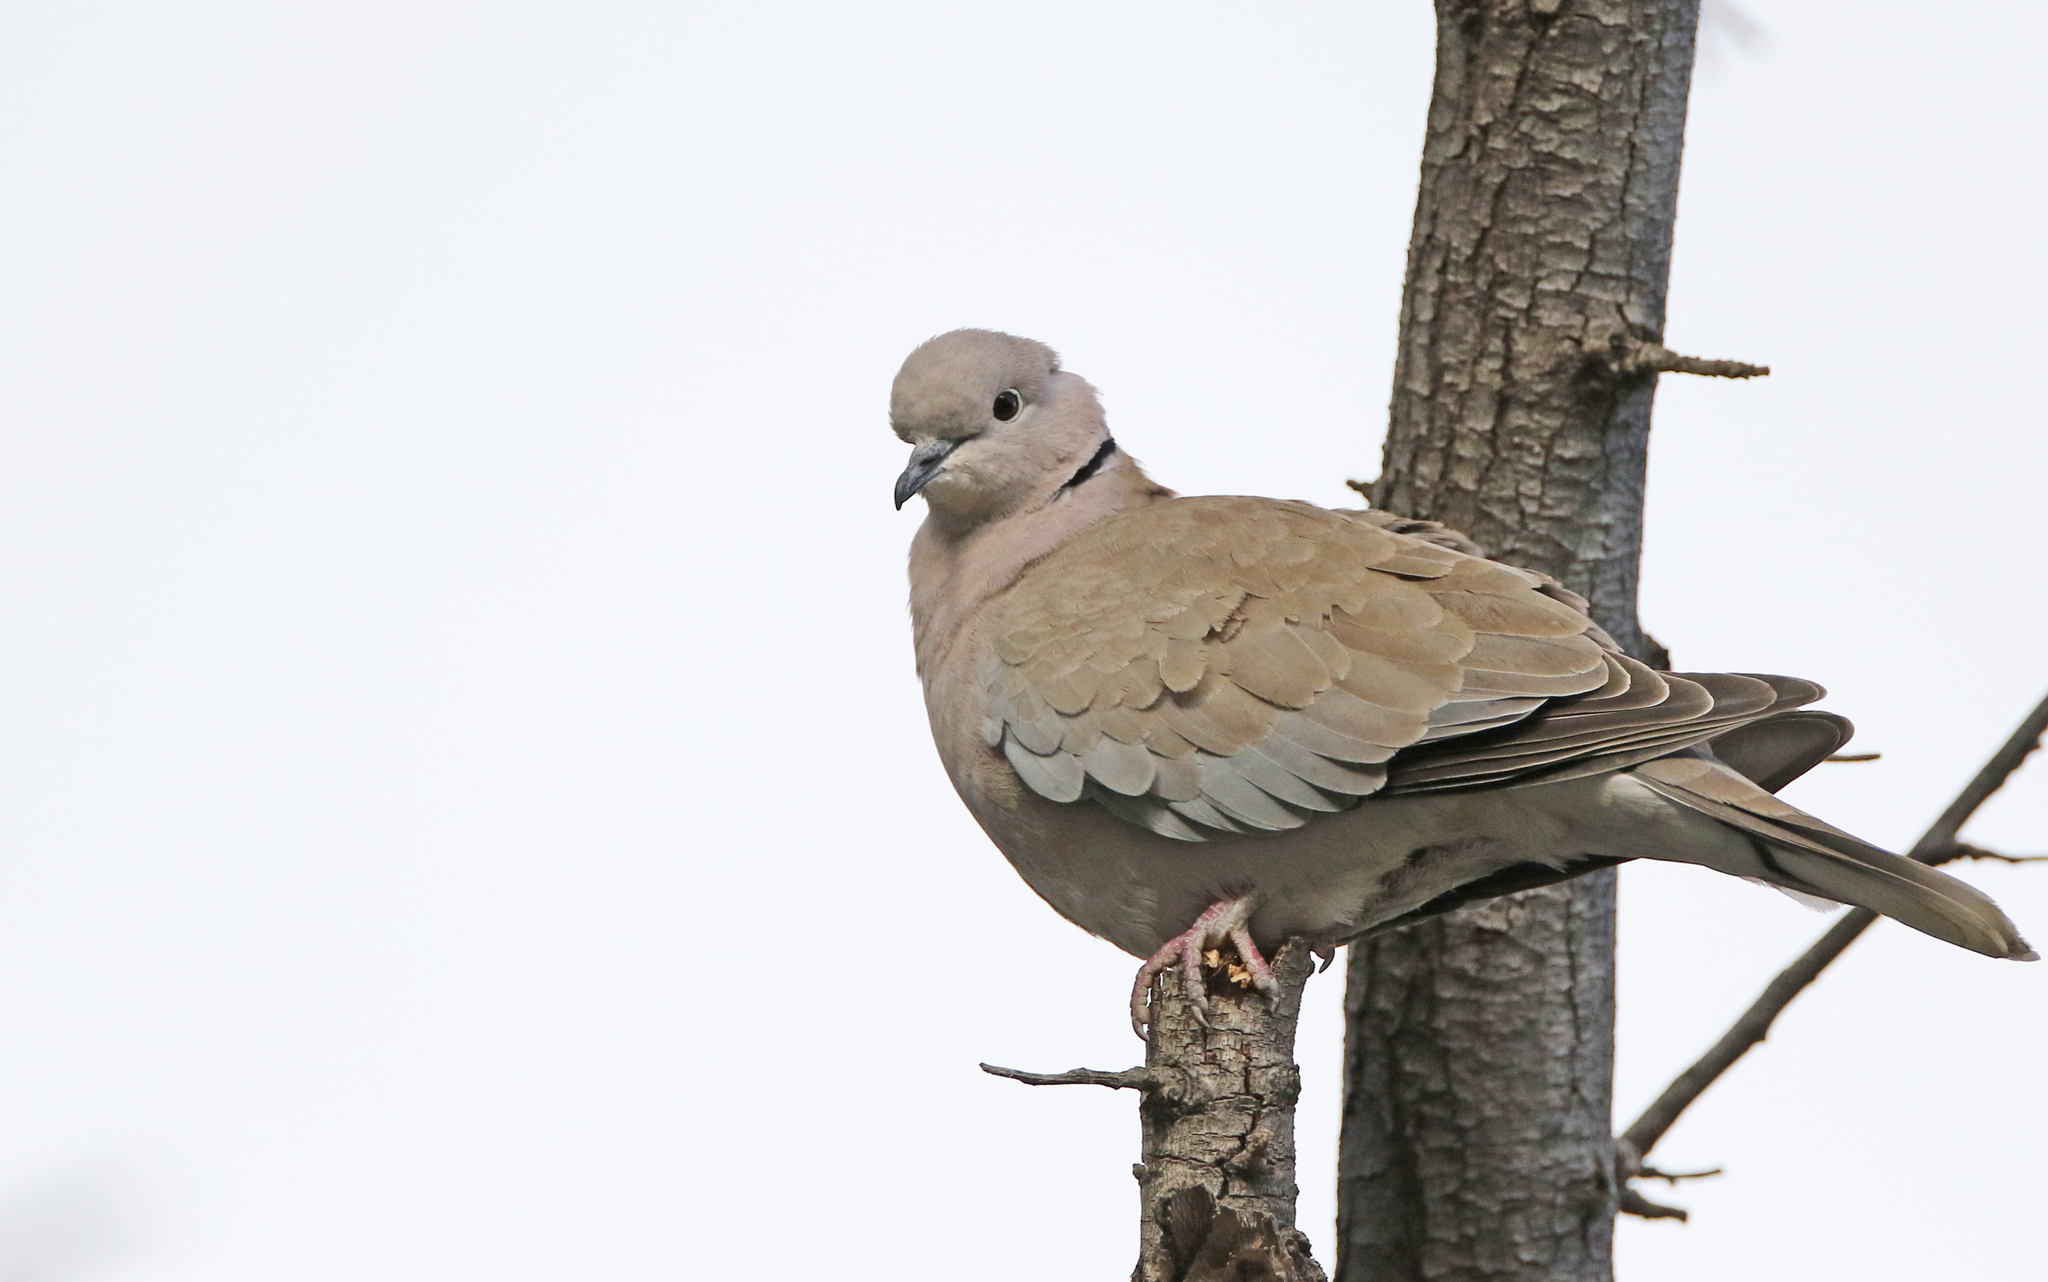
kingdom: Animalia
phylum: Chordata
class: Aves
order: Columbiformes
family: Columbidae
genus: Streptopelia
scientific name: Streptopelia decaocto
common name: Eurasian collared dove
